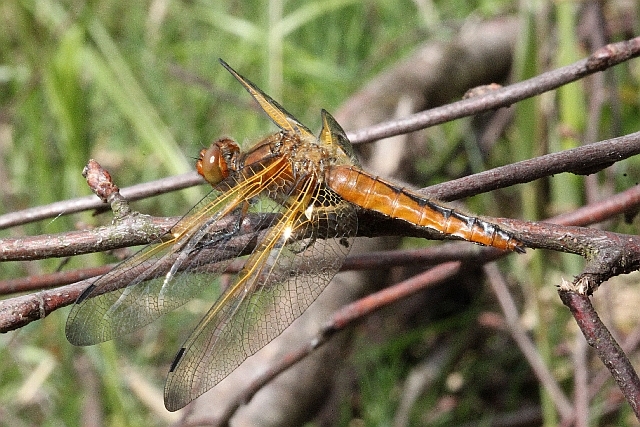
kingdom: Animalia
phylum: Arthropoda
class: Insecta
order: Odonata
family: Libellulidae
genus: Libellula
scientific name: Libellula fulva
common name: Blue chaser
